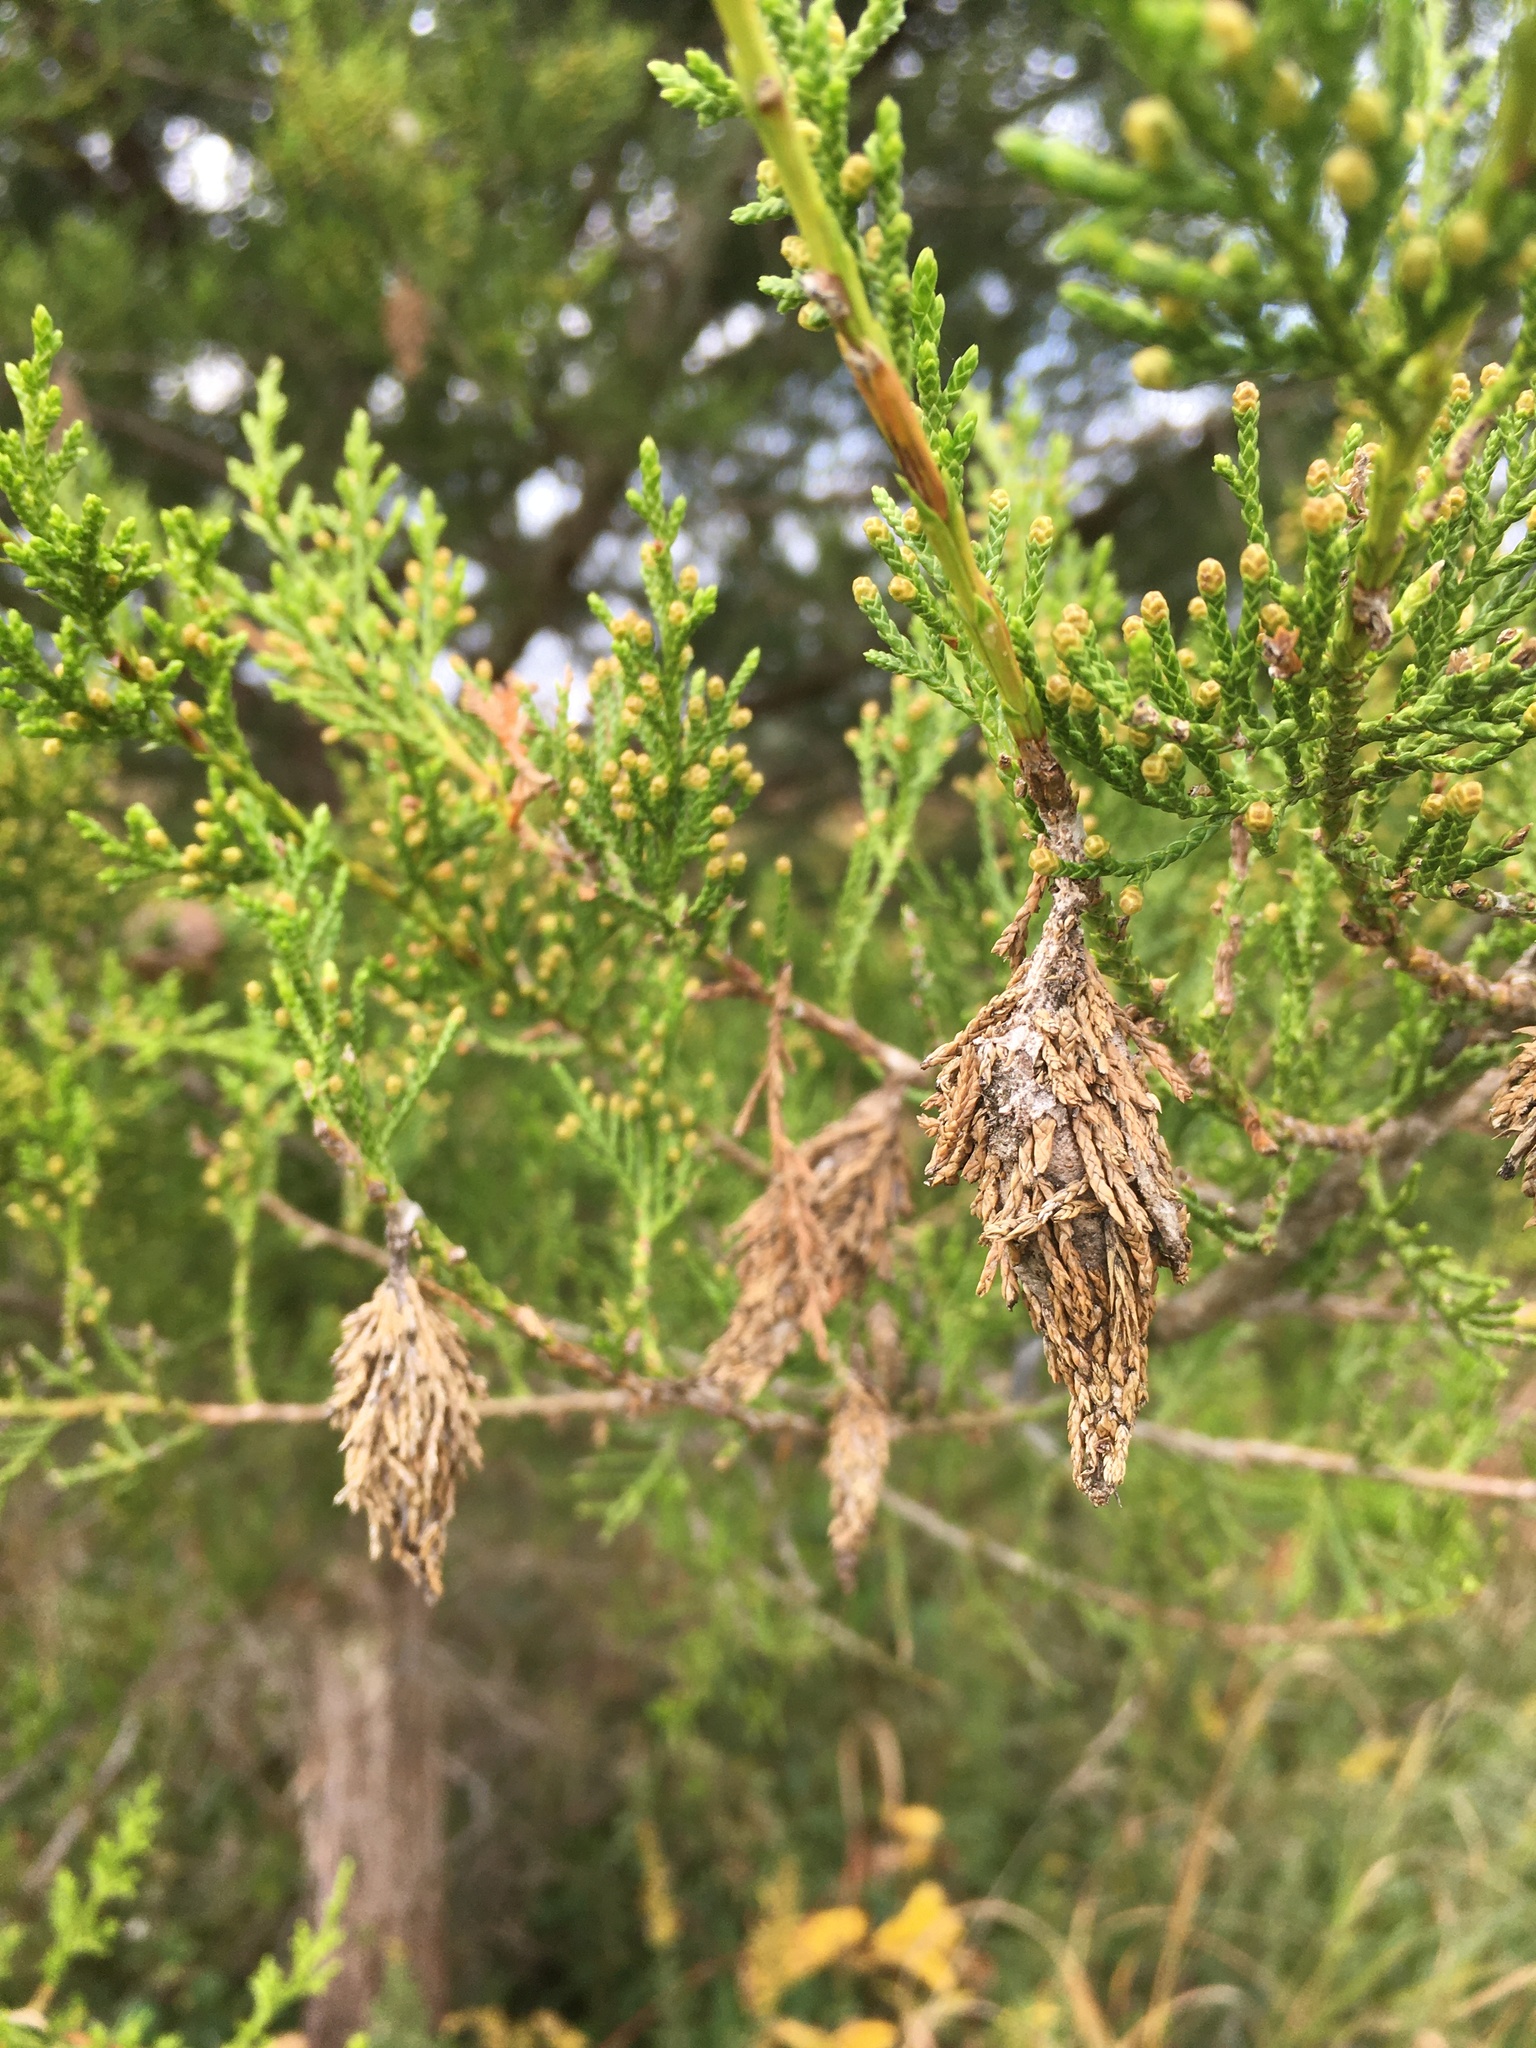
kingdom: Plantae
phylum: Tracheophyta
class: Pinopsida
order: Pinales
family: Cupressaceae
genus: Juniperus
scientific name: Juniperus virginiana
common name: Red juniper
